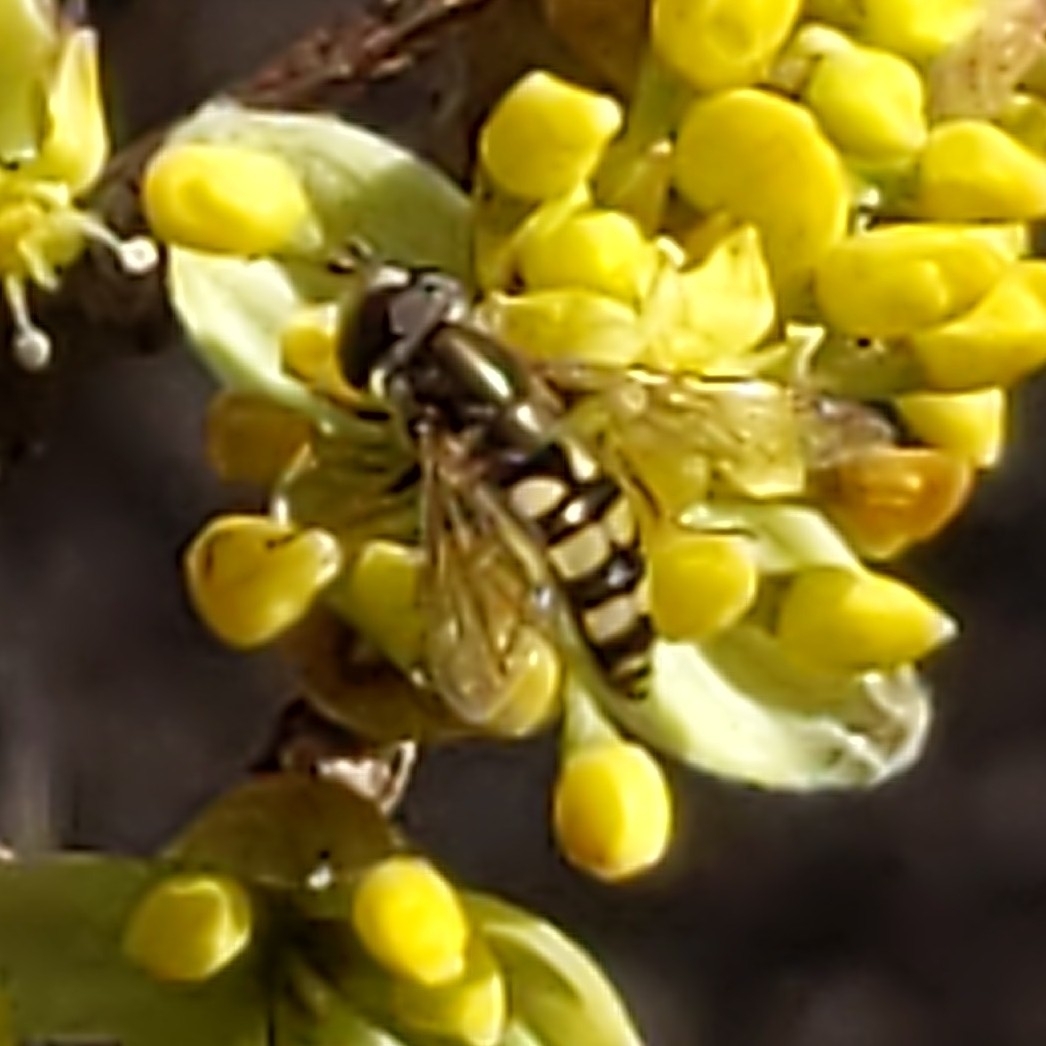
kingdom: Animalia
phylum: Arthropoda
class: Insecta
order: Diptera
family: Syrphidae
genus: Eupeodes
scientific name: Eupeodes
